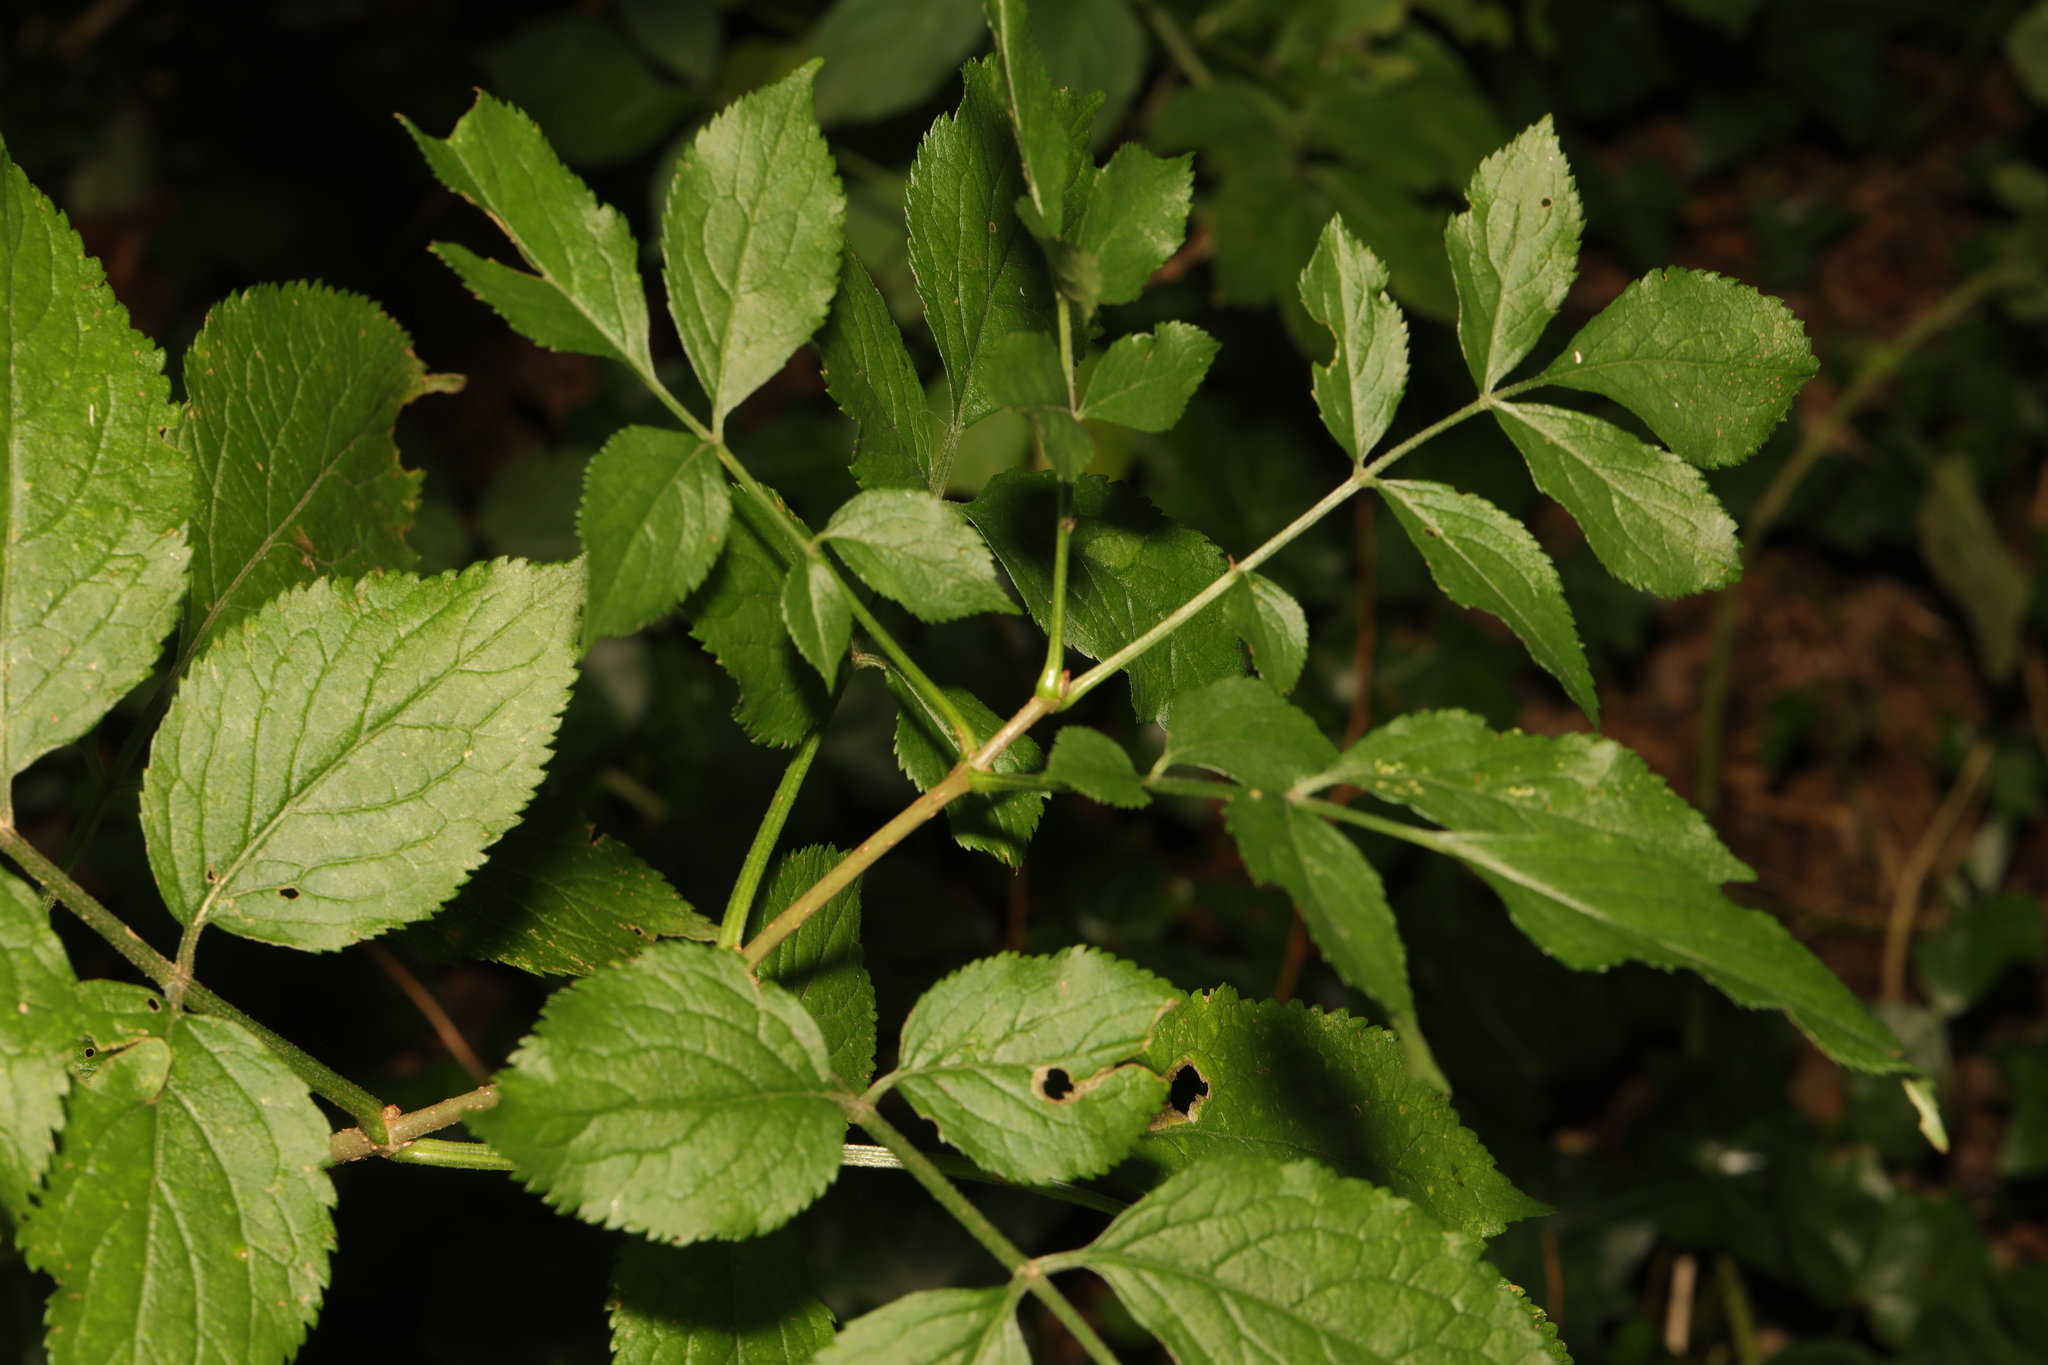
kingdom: Plantae
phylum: Tracheophyta
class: Magnoliopsida
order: Dipsacales
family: Viburnaceae
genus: Sambucus
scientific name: Sambucus nigra
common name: Elder
